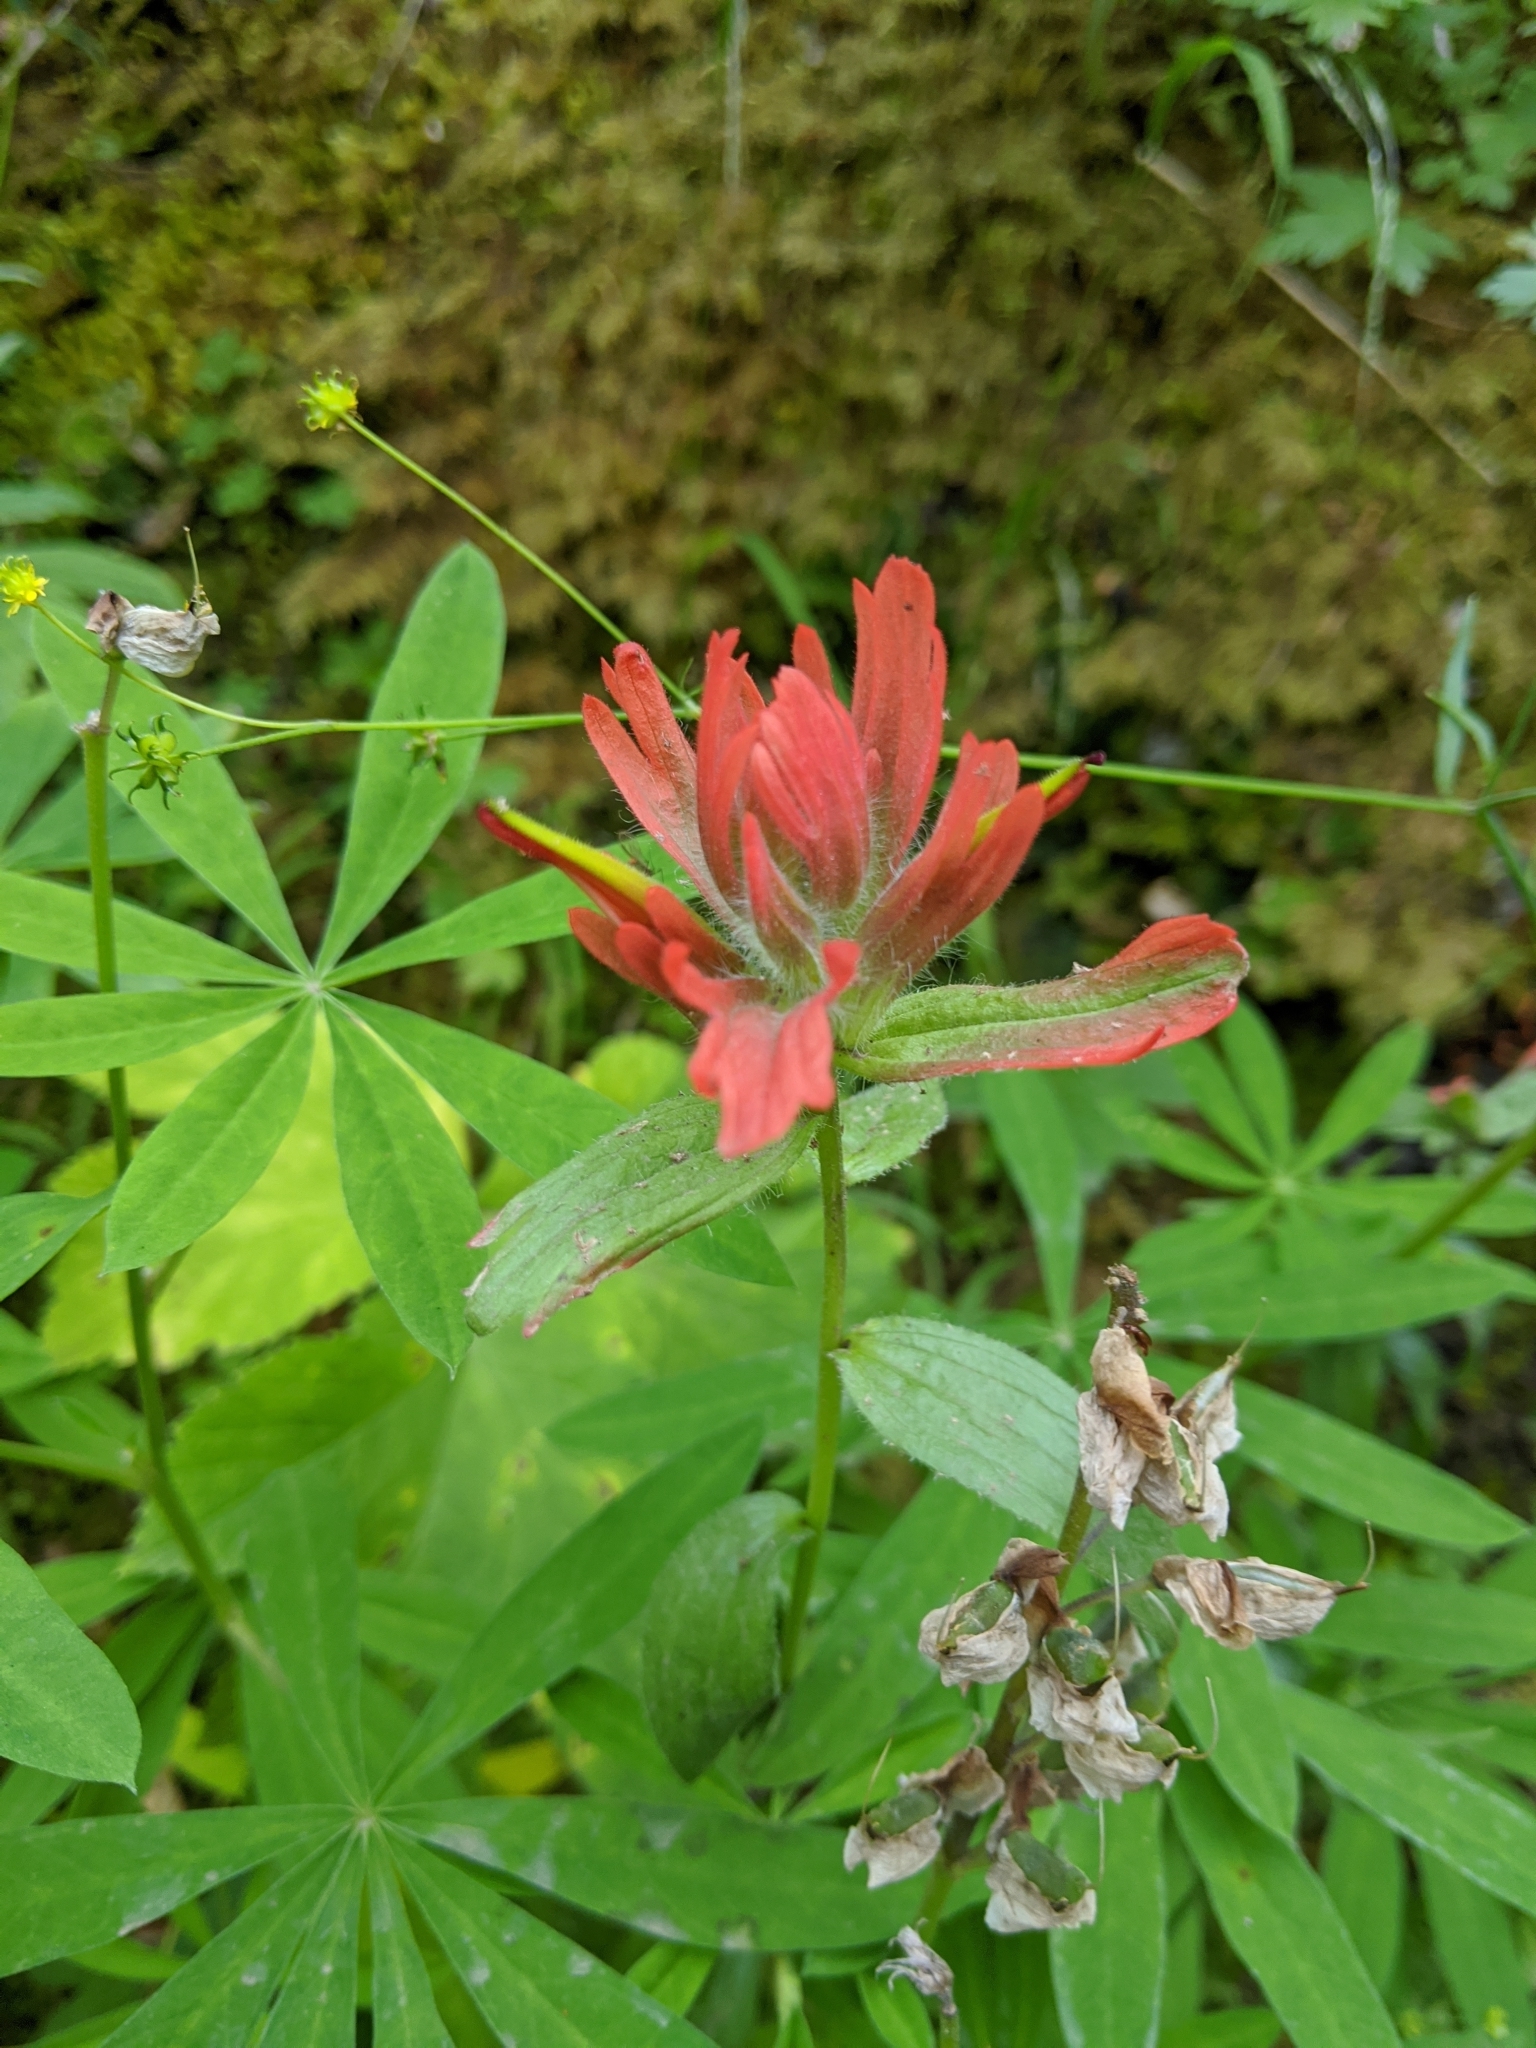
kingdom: Plantae
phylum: Tracheophyta
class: Magnoliopsida
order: Lamiales
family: Orobanchaceae
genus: Castilleja
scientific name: Castilleja hispida
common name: Bristly paintbrush
